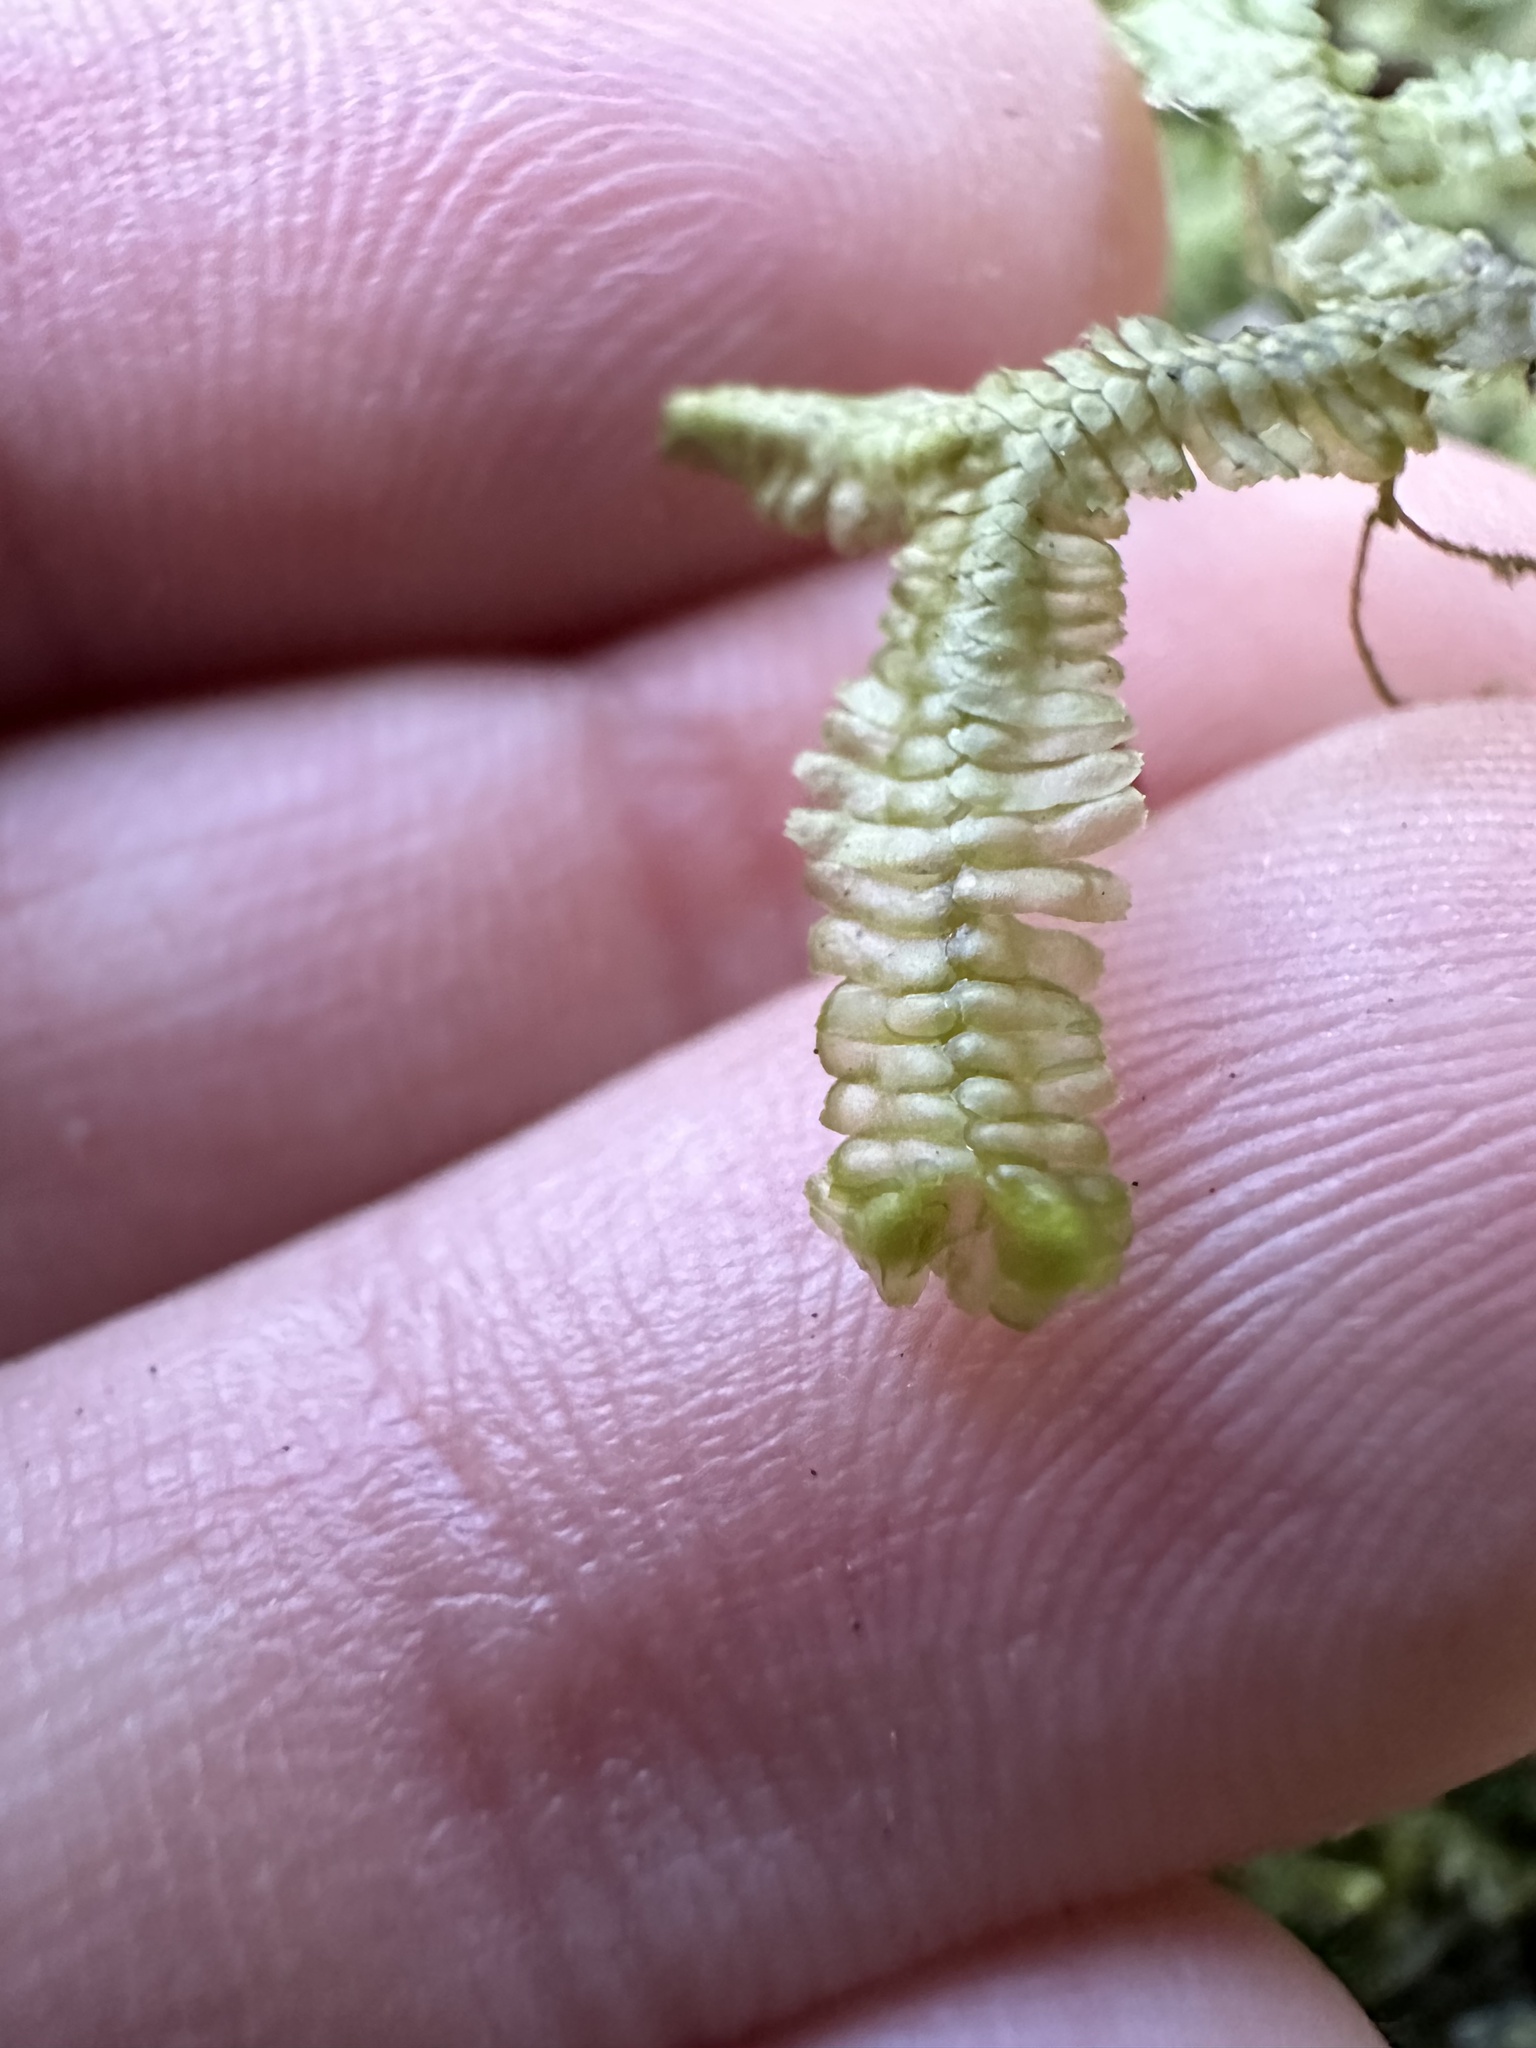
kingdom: Plantae
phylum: Marchantiophyta
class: Jungermanniopsida
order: Jungermanniales
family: Lepidoziaceae
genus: Bazzania
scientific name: Bazzania trilobata
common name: Three-lobed whipwort
